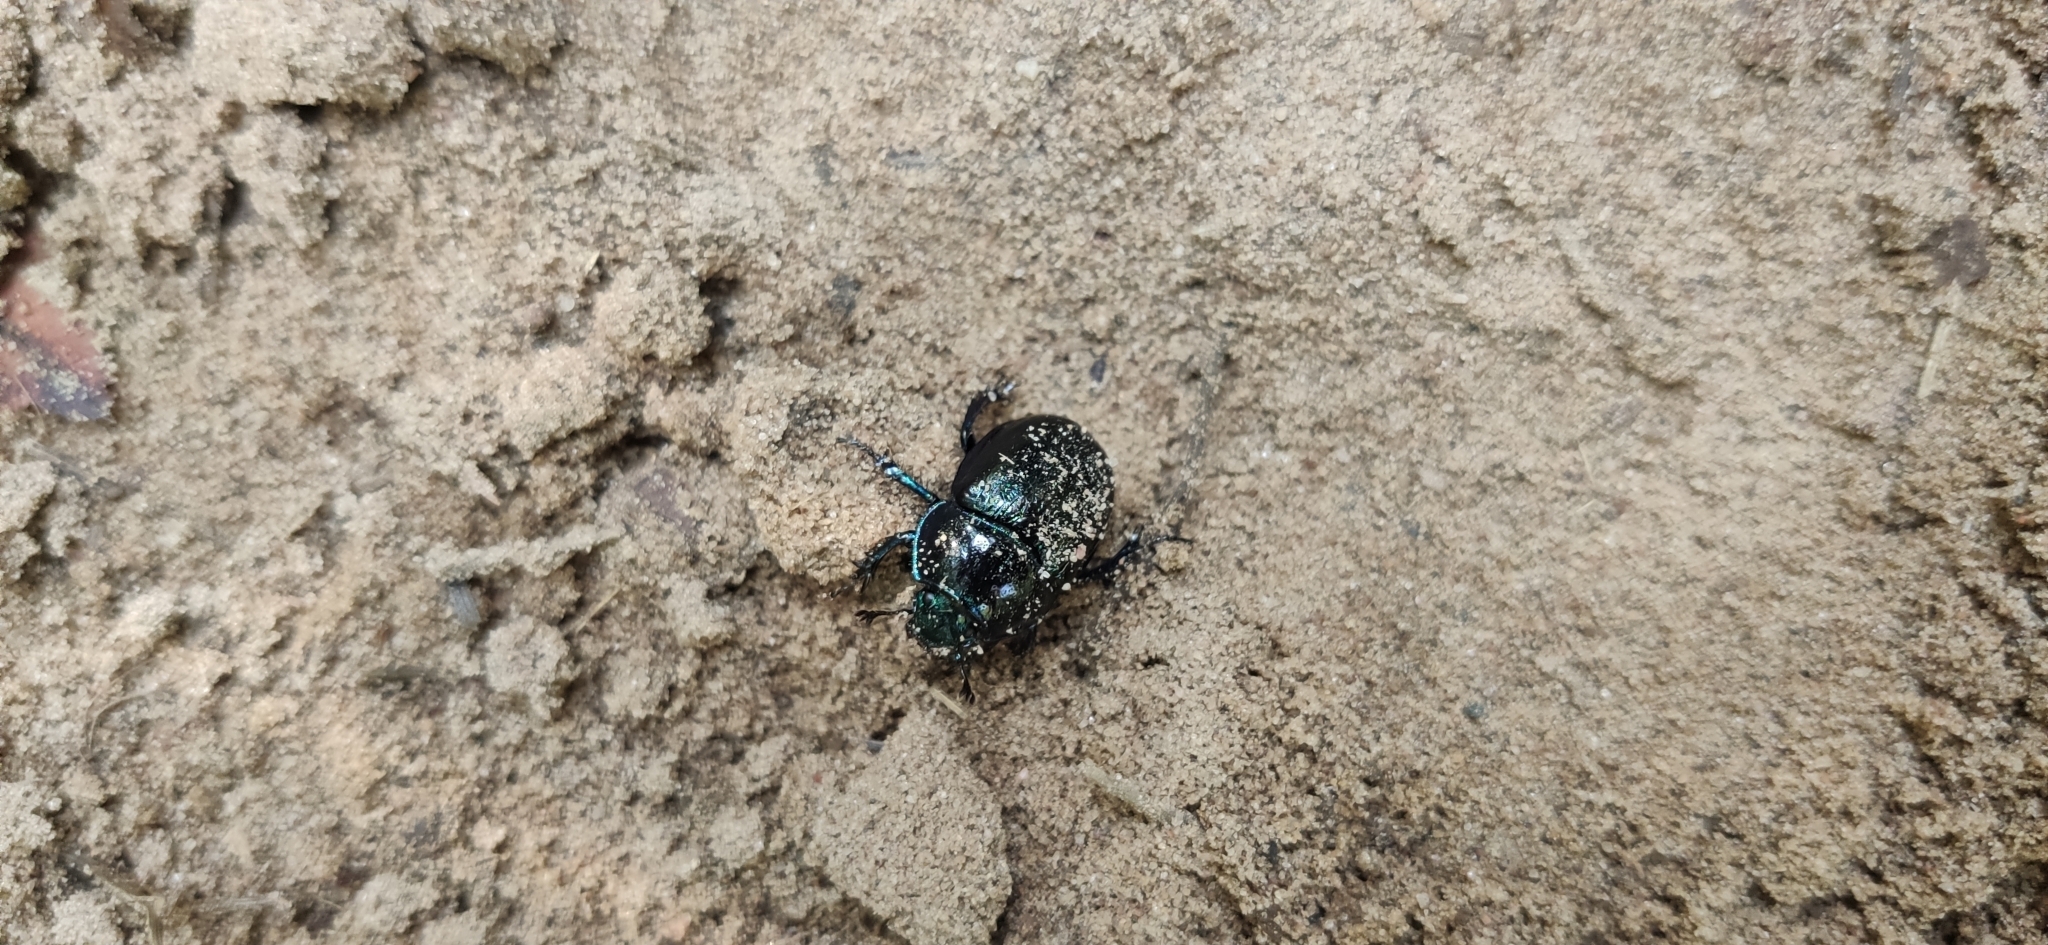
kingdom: Animalia
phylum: Arthropoda
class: Insecta
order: Coleoptera
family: Geotrupidae
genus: Anoplotrupes
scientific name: Anoplotrupes stercorosus
